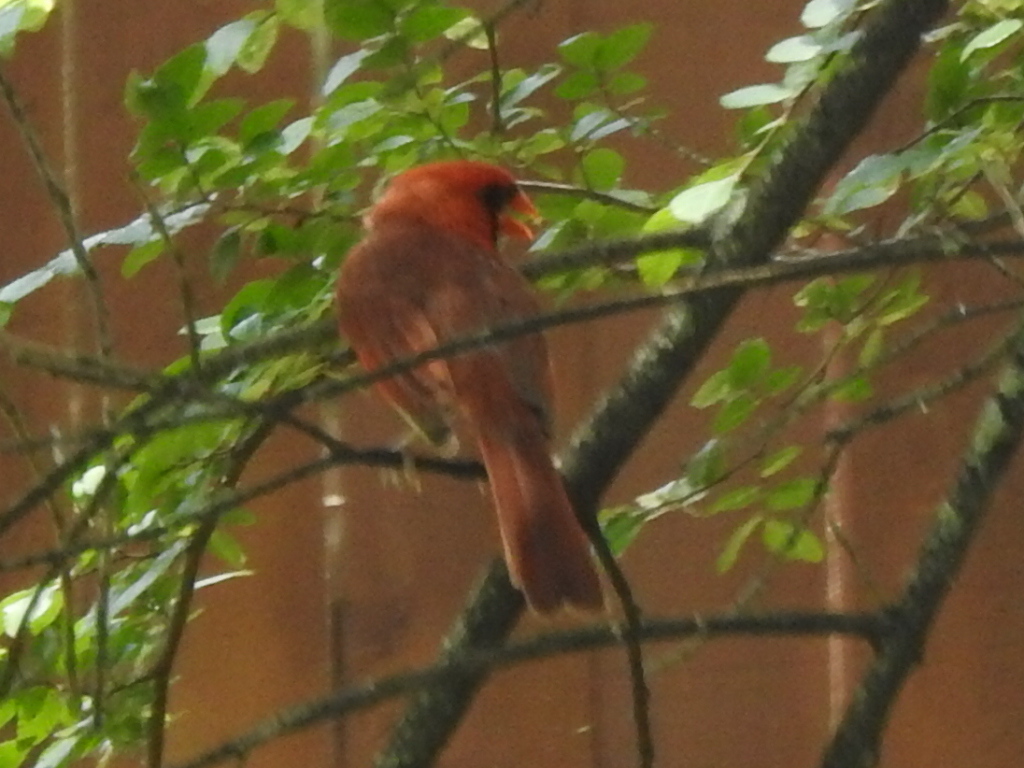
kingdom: Animalia
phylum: Chordata
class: Aves
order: Passeriformes
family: Cardinalidae
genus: Cardinalis
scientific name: Cardinalis cardinalis
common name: Northern cardinal
